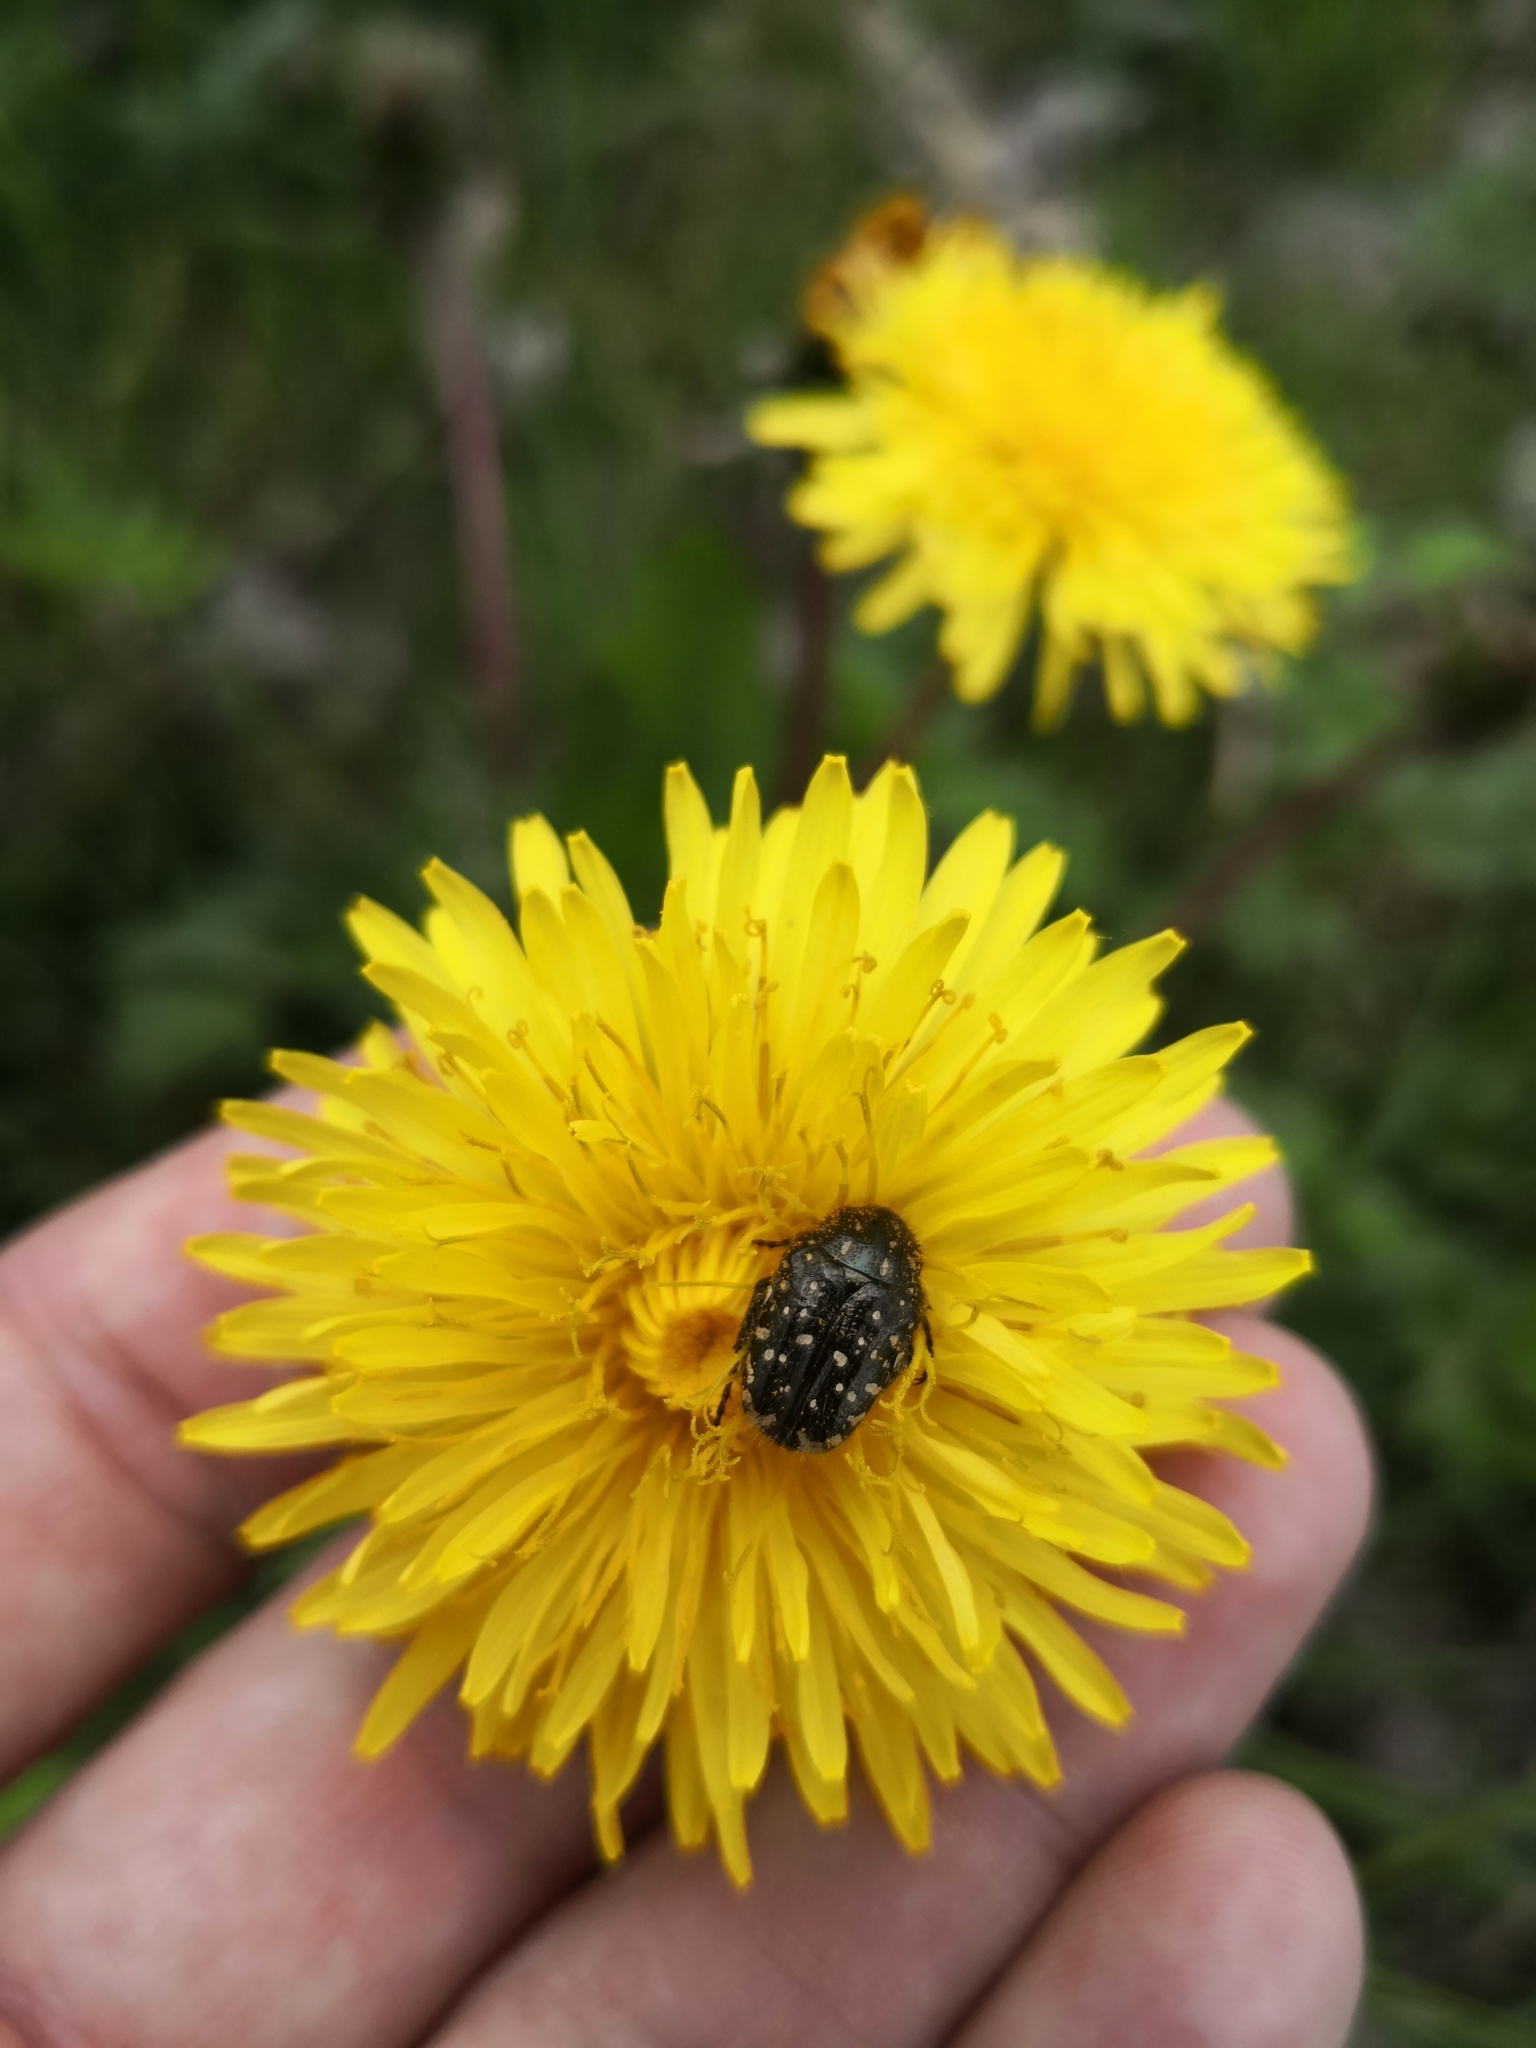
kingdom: Animalia
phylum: Arthropoda
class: Insecta
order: Coleoptera
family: Scarabaeidae
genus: Oxythyrea
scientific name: Oxythyrea funesta
